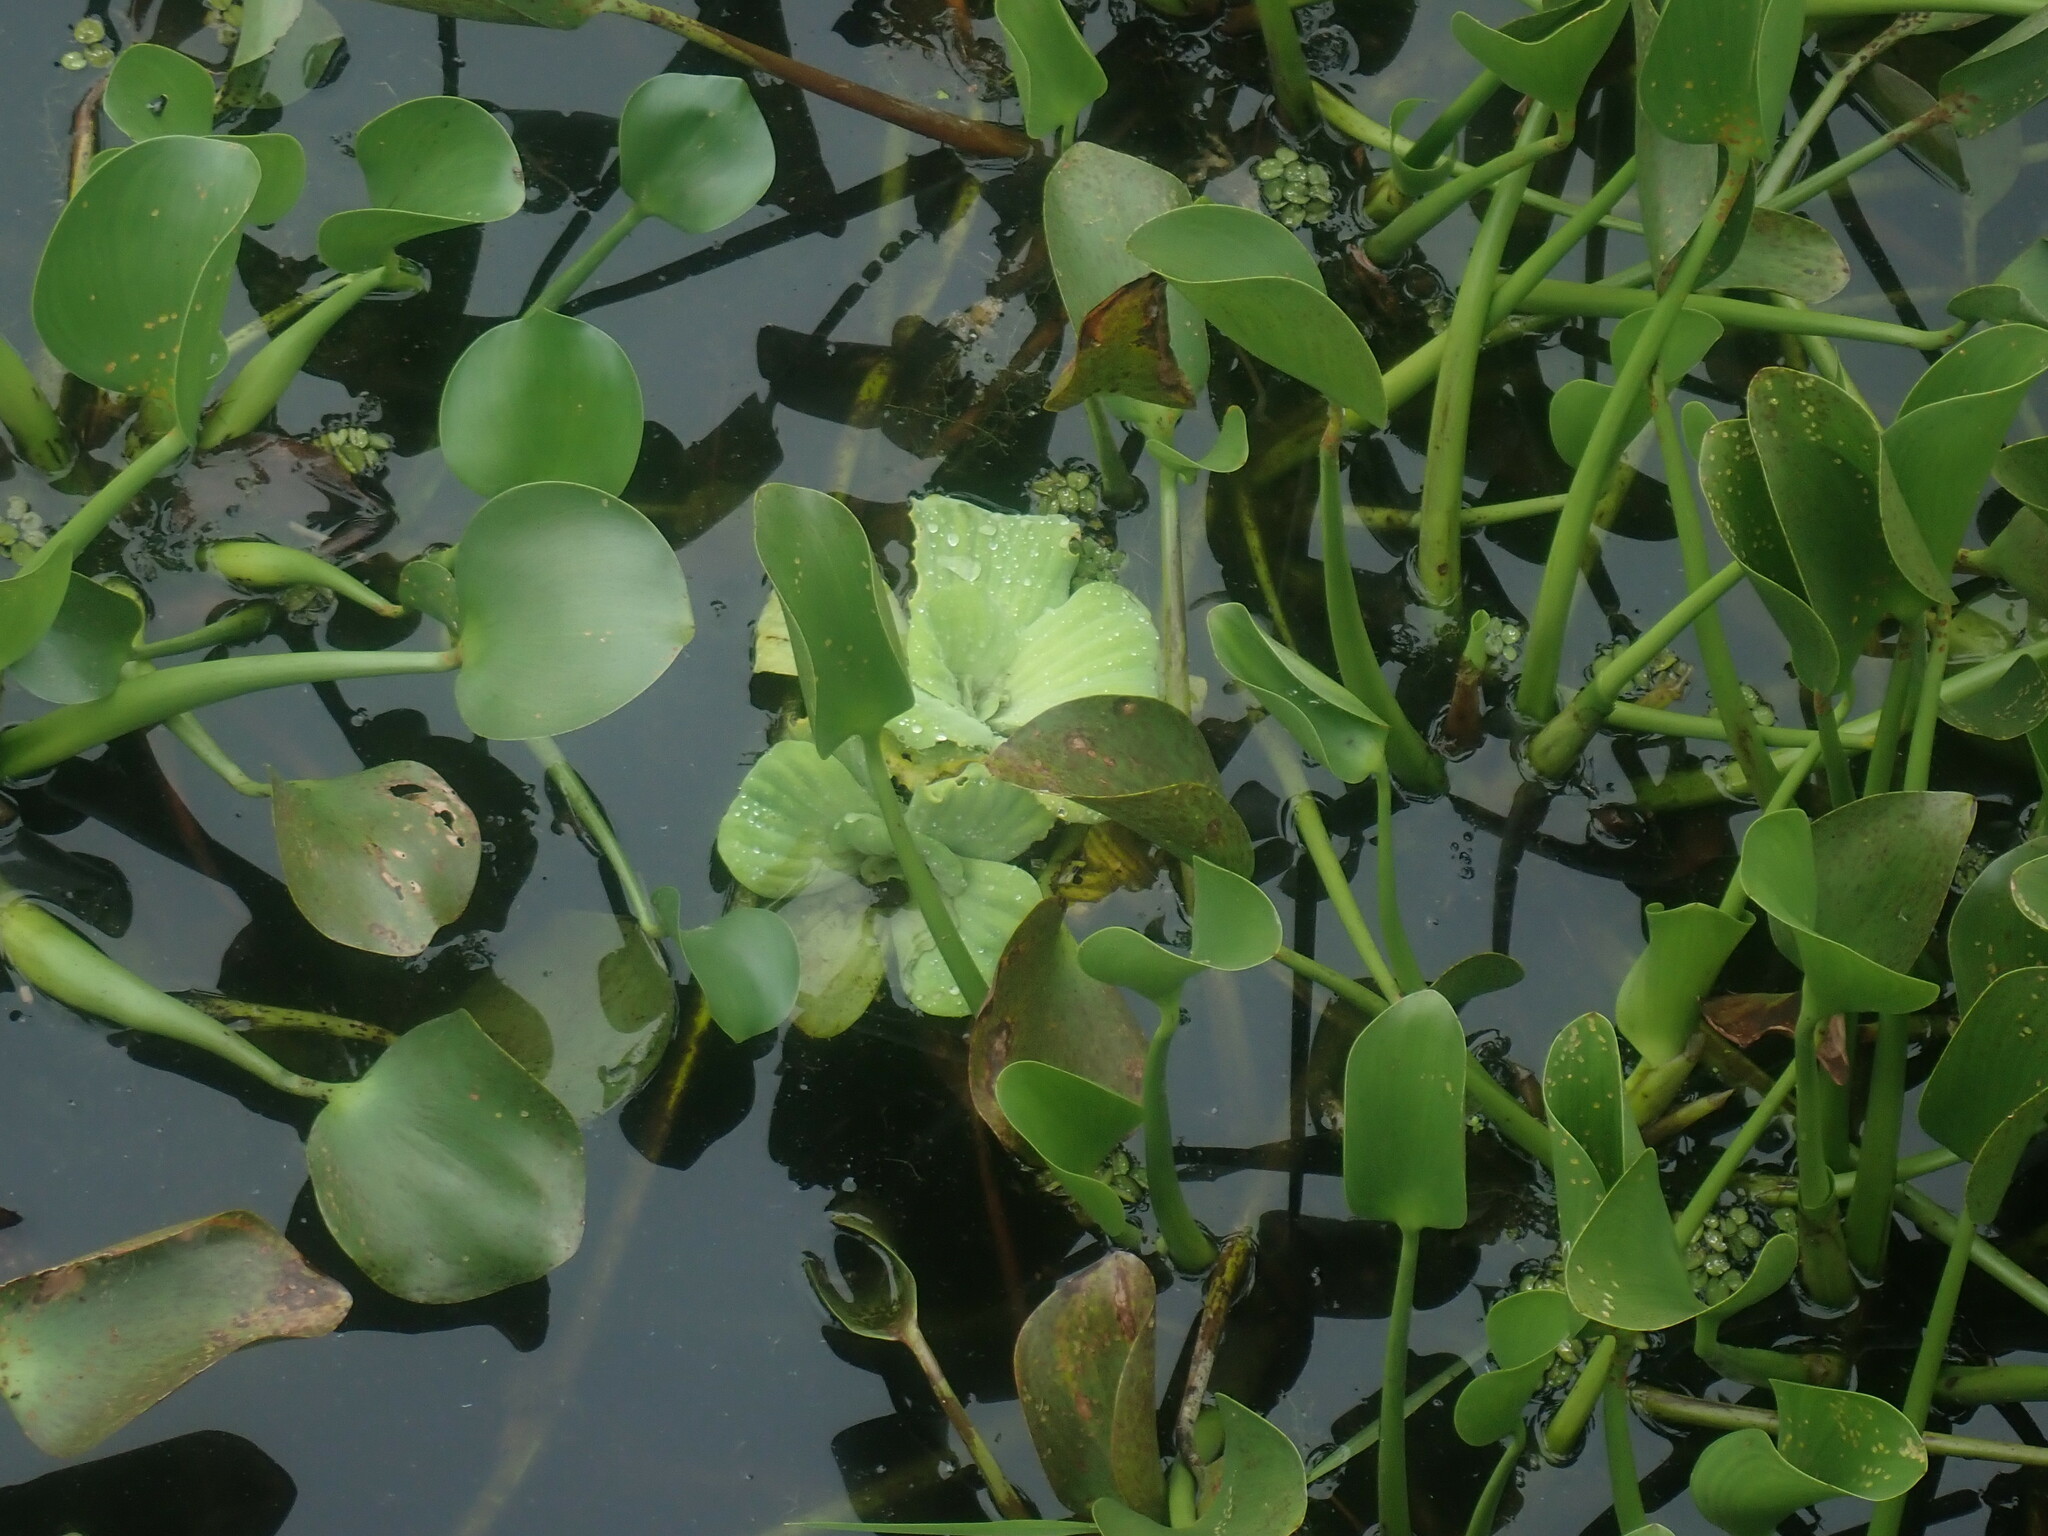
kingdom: Plantae
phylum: Tracheophyta
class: Liliopsida
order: Alismatales
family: Araceae
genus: Pistia
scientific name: Pistia stratiotes
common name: Water lettuce
